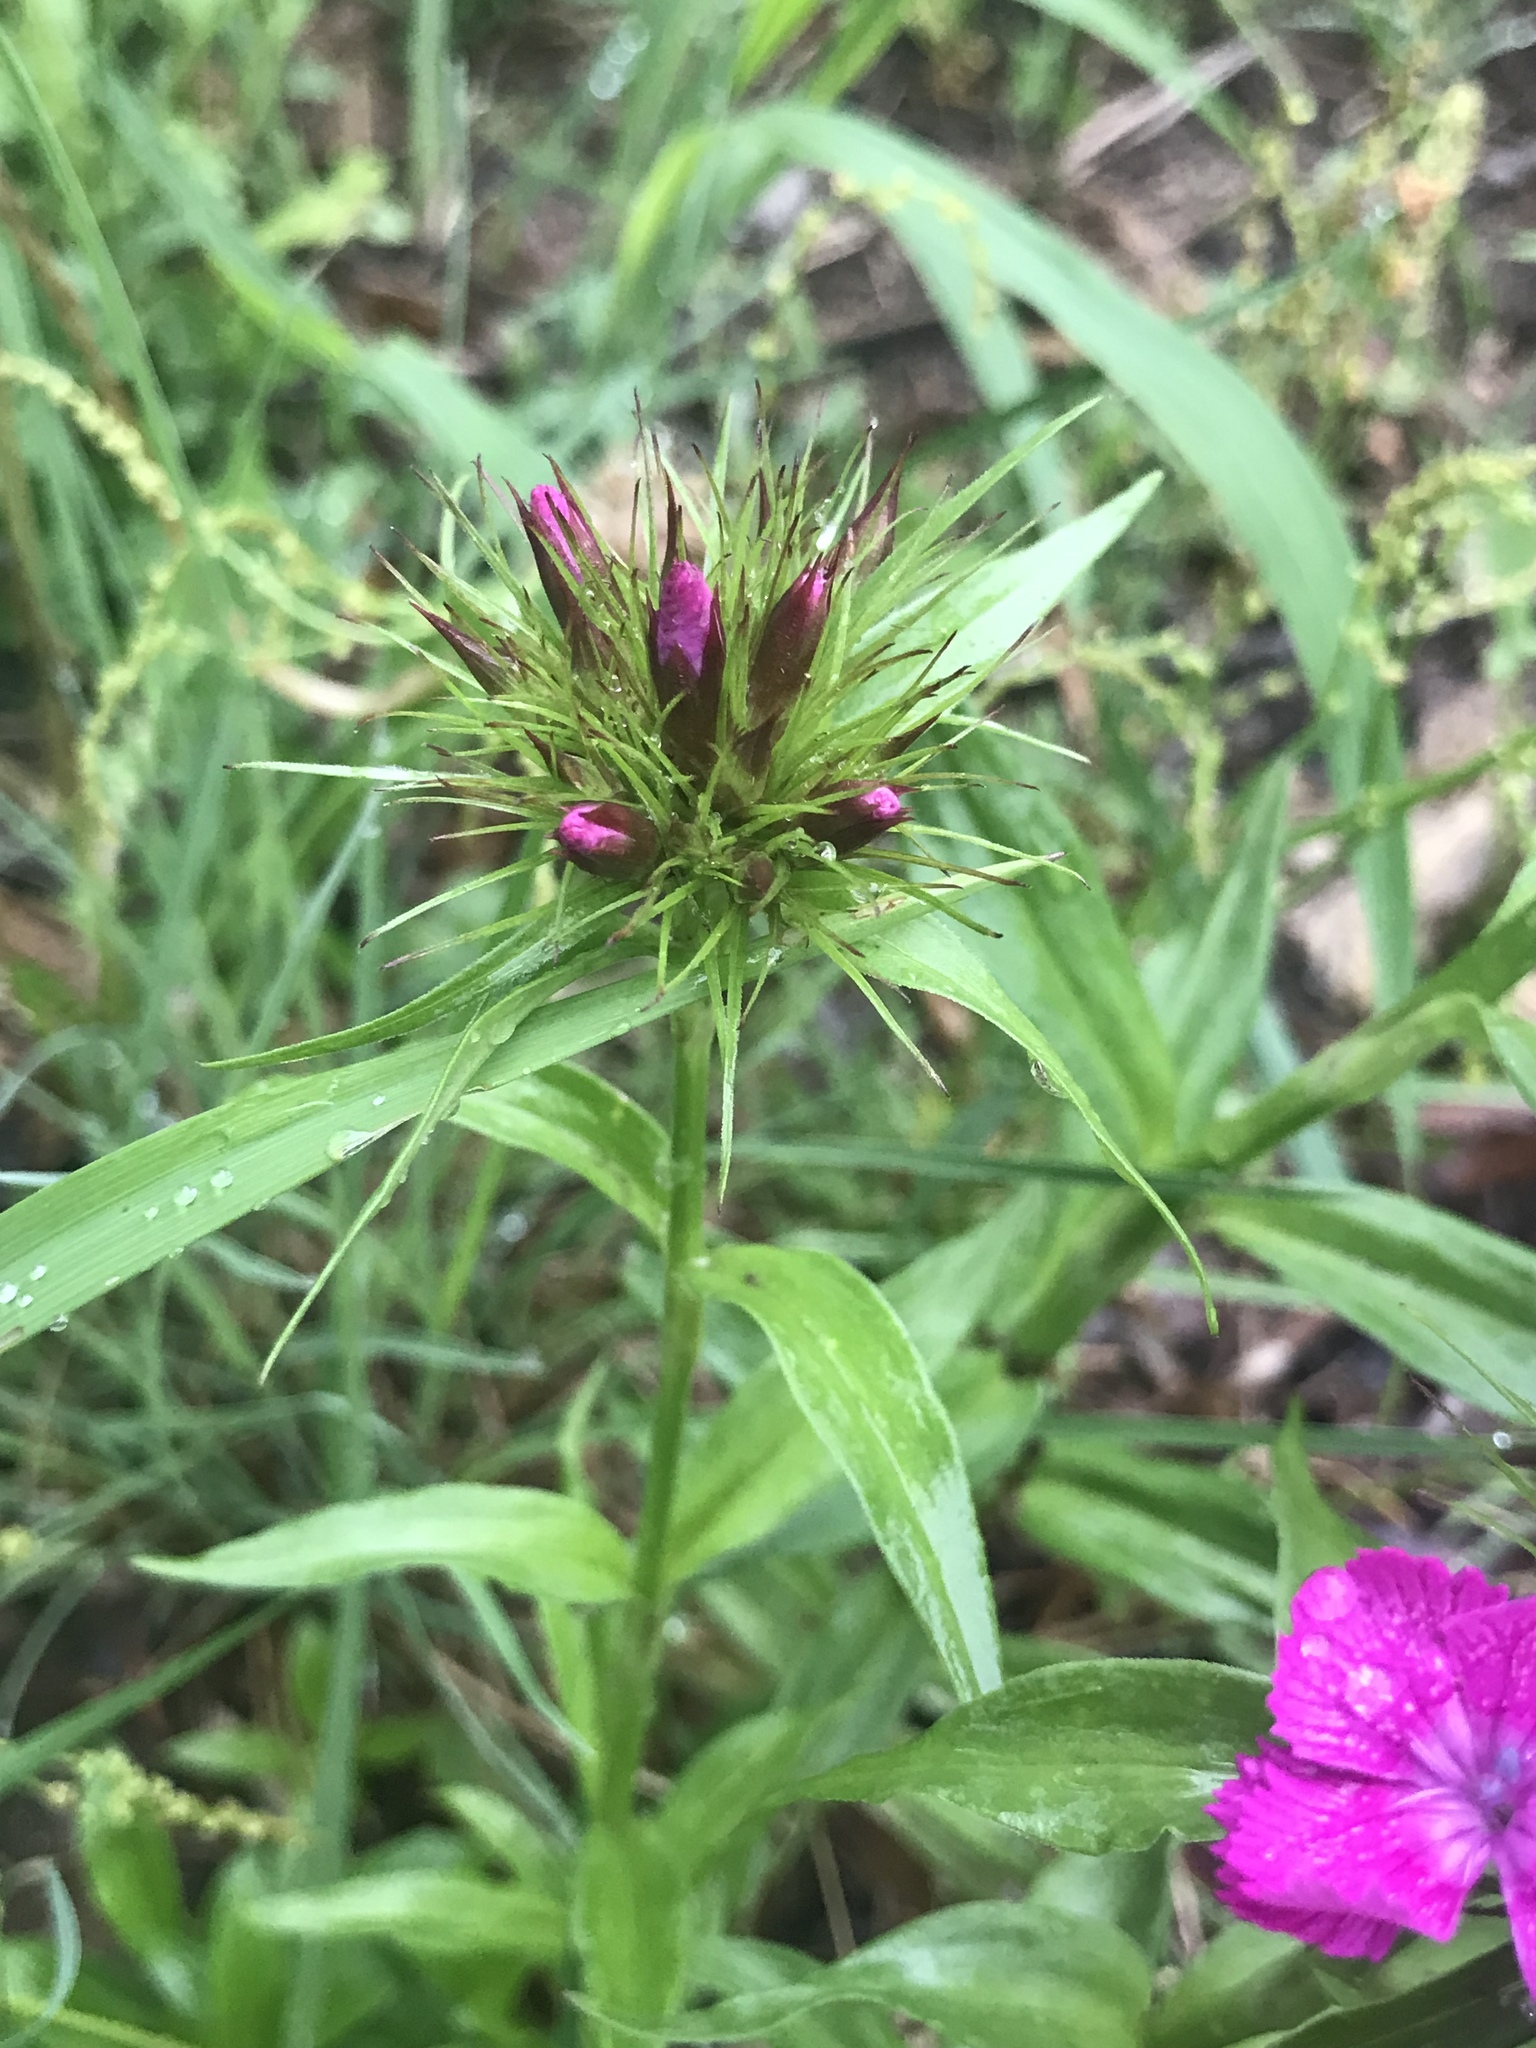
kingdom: Plantae
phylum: Tracheophyta
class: Magnoliopsida
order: Caryophyllales
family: Caryophyllaceae
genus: Dianthus
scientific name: Dianthus barbatus
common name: Sweet-william
